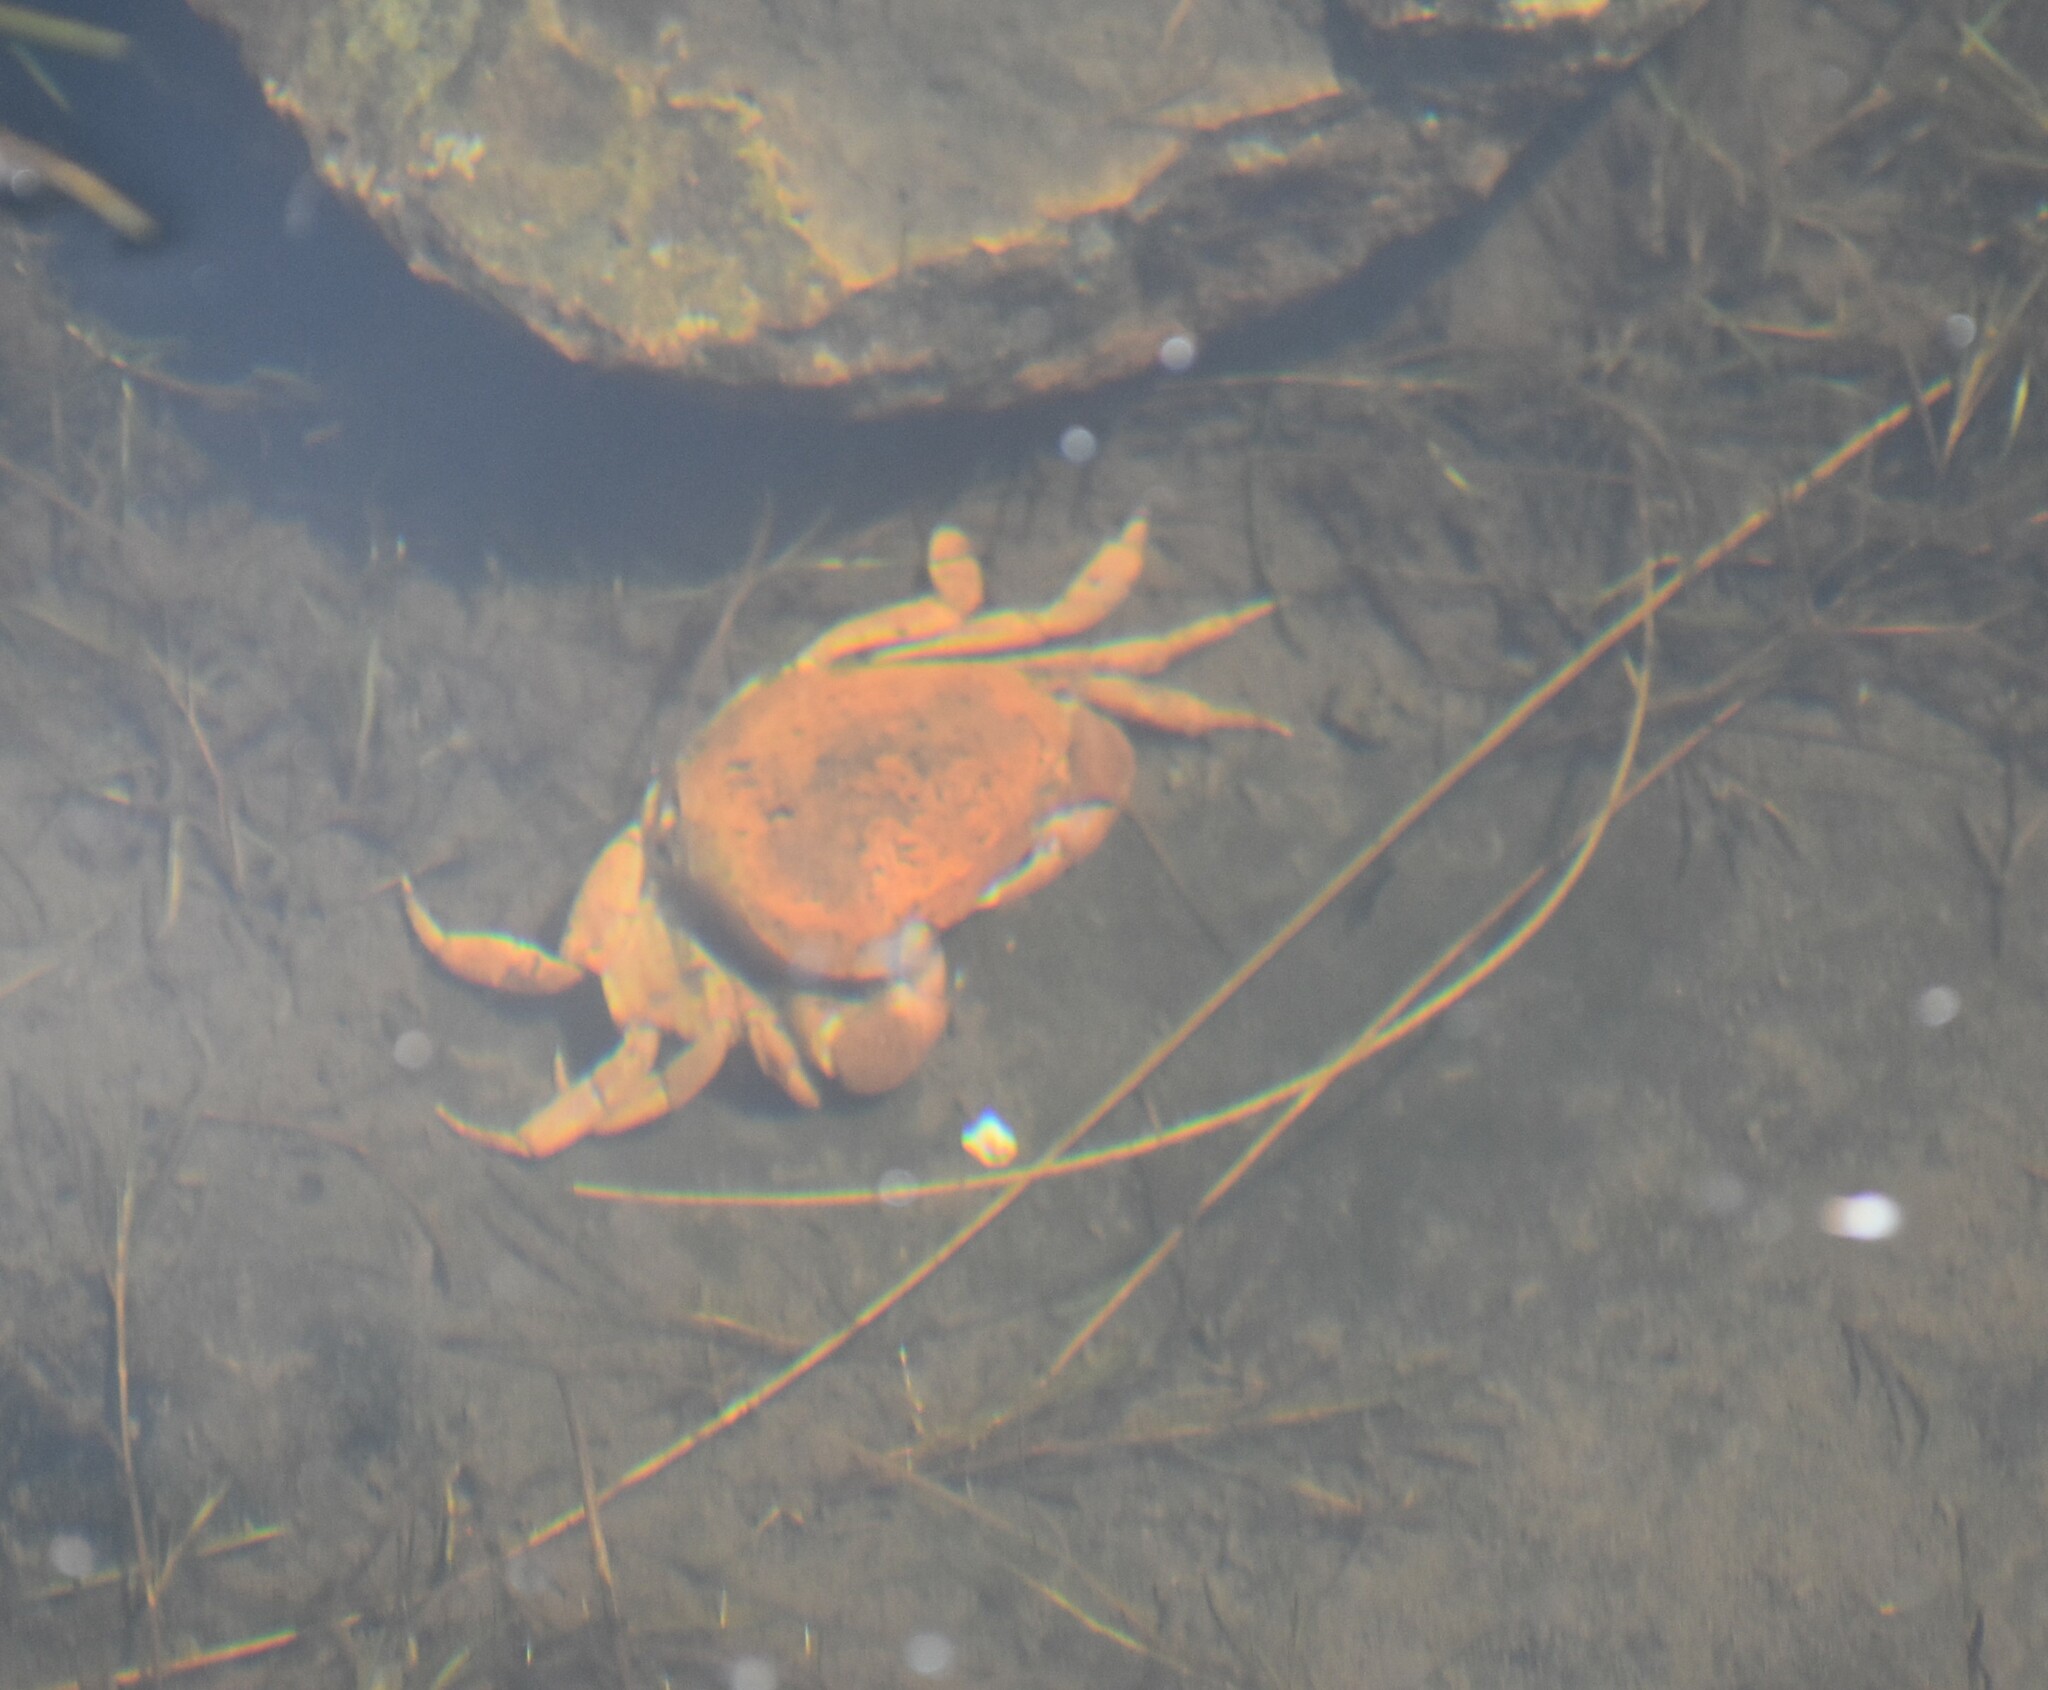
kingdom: Animalia
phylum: Arthropoda
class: Malacostraca
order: Decapoda
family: Potamonautidae
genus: Potamonautes
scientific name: Potamonautes depressus
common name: Flat river crab
